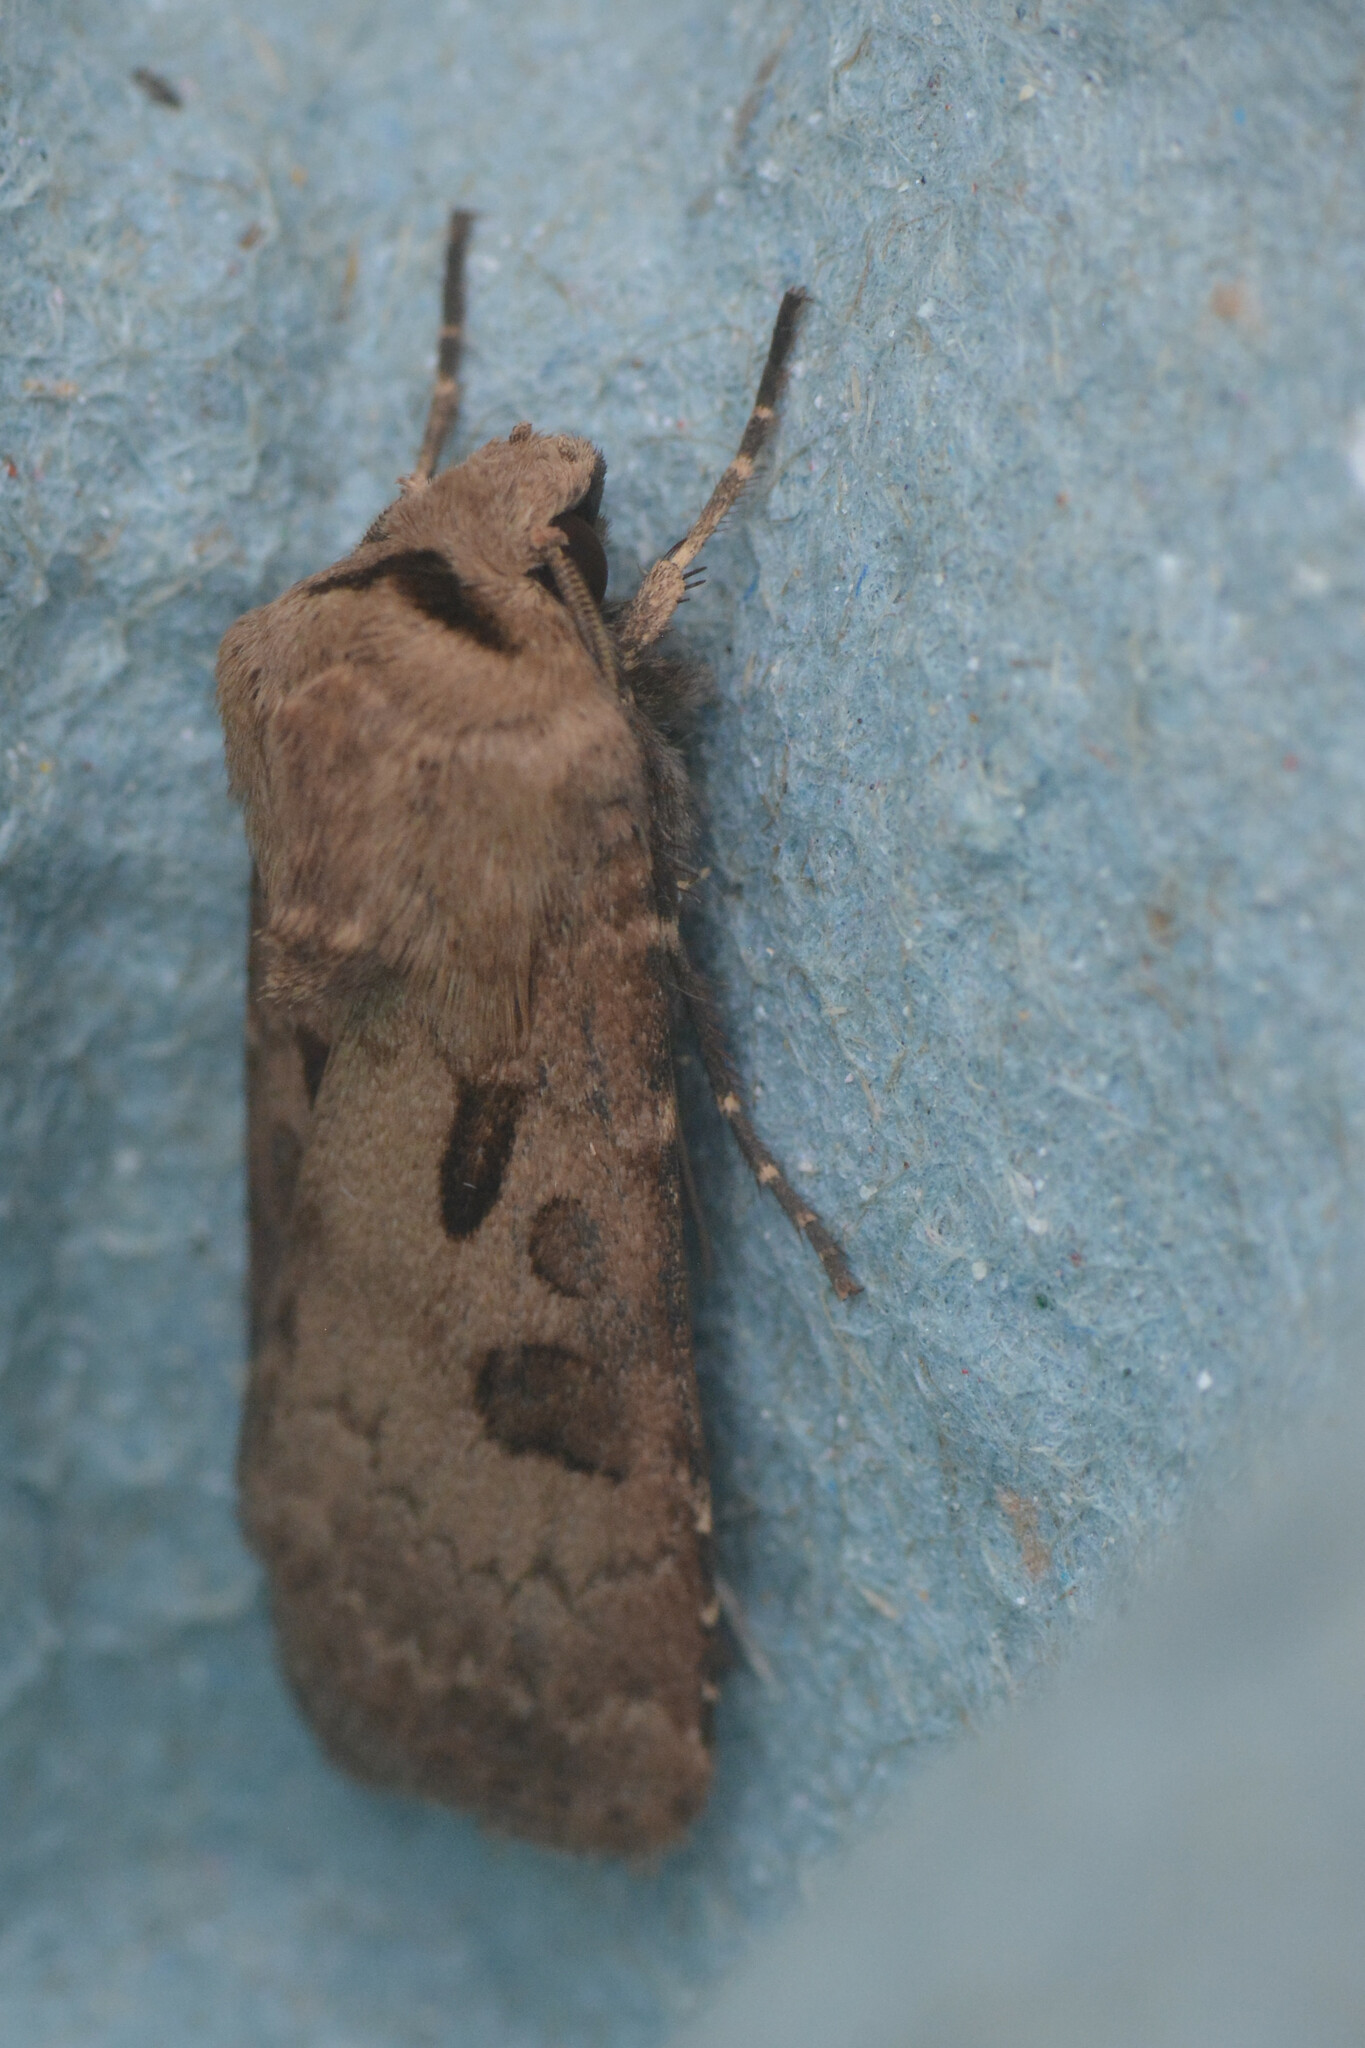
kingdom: Animalia
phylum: Arthropoda
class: Insecta
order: Lepidoptera
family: Noctuidae
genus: Agrotis
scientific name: Agrotis exclamationis
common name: Heart and dart
